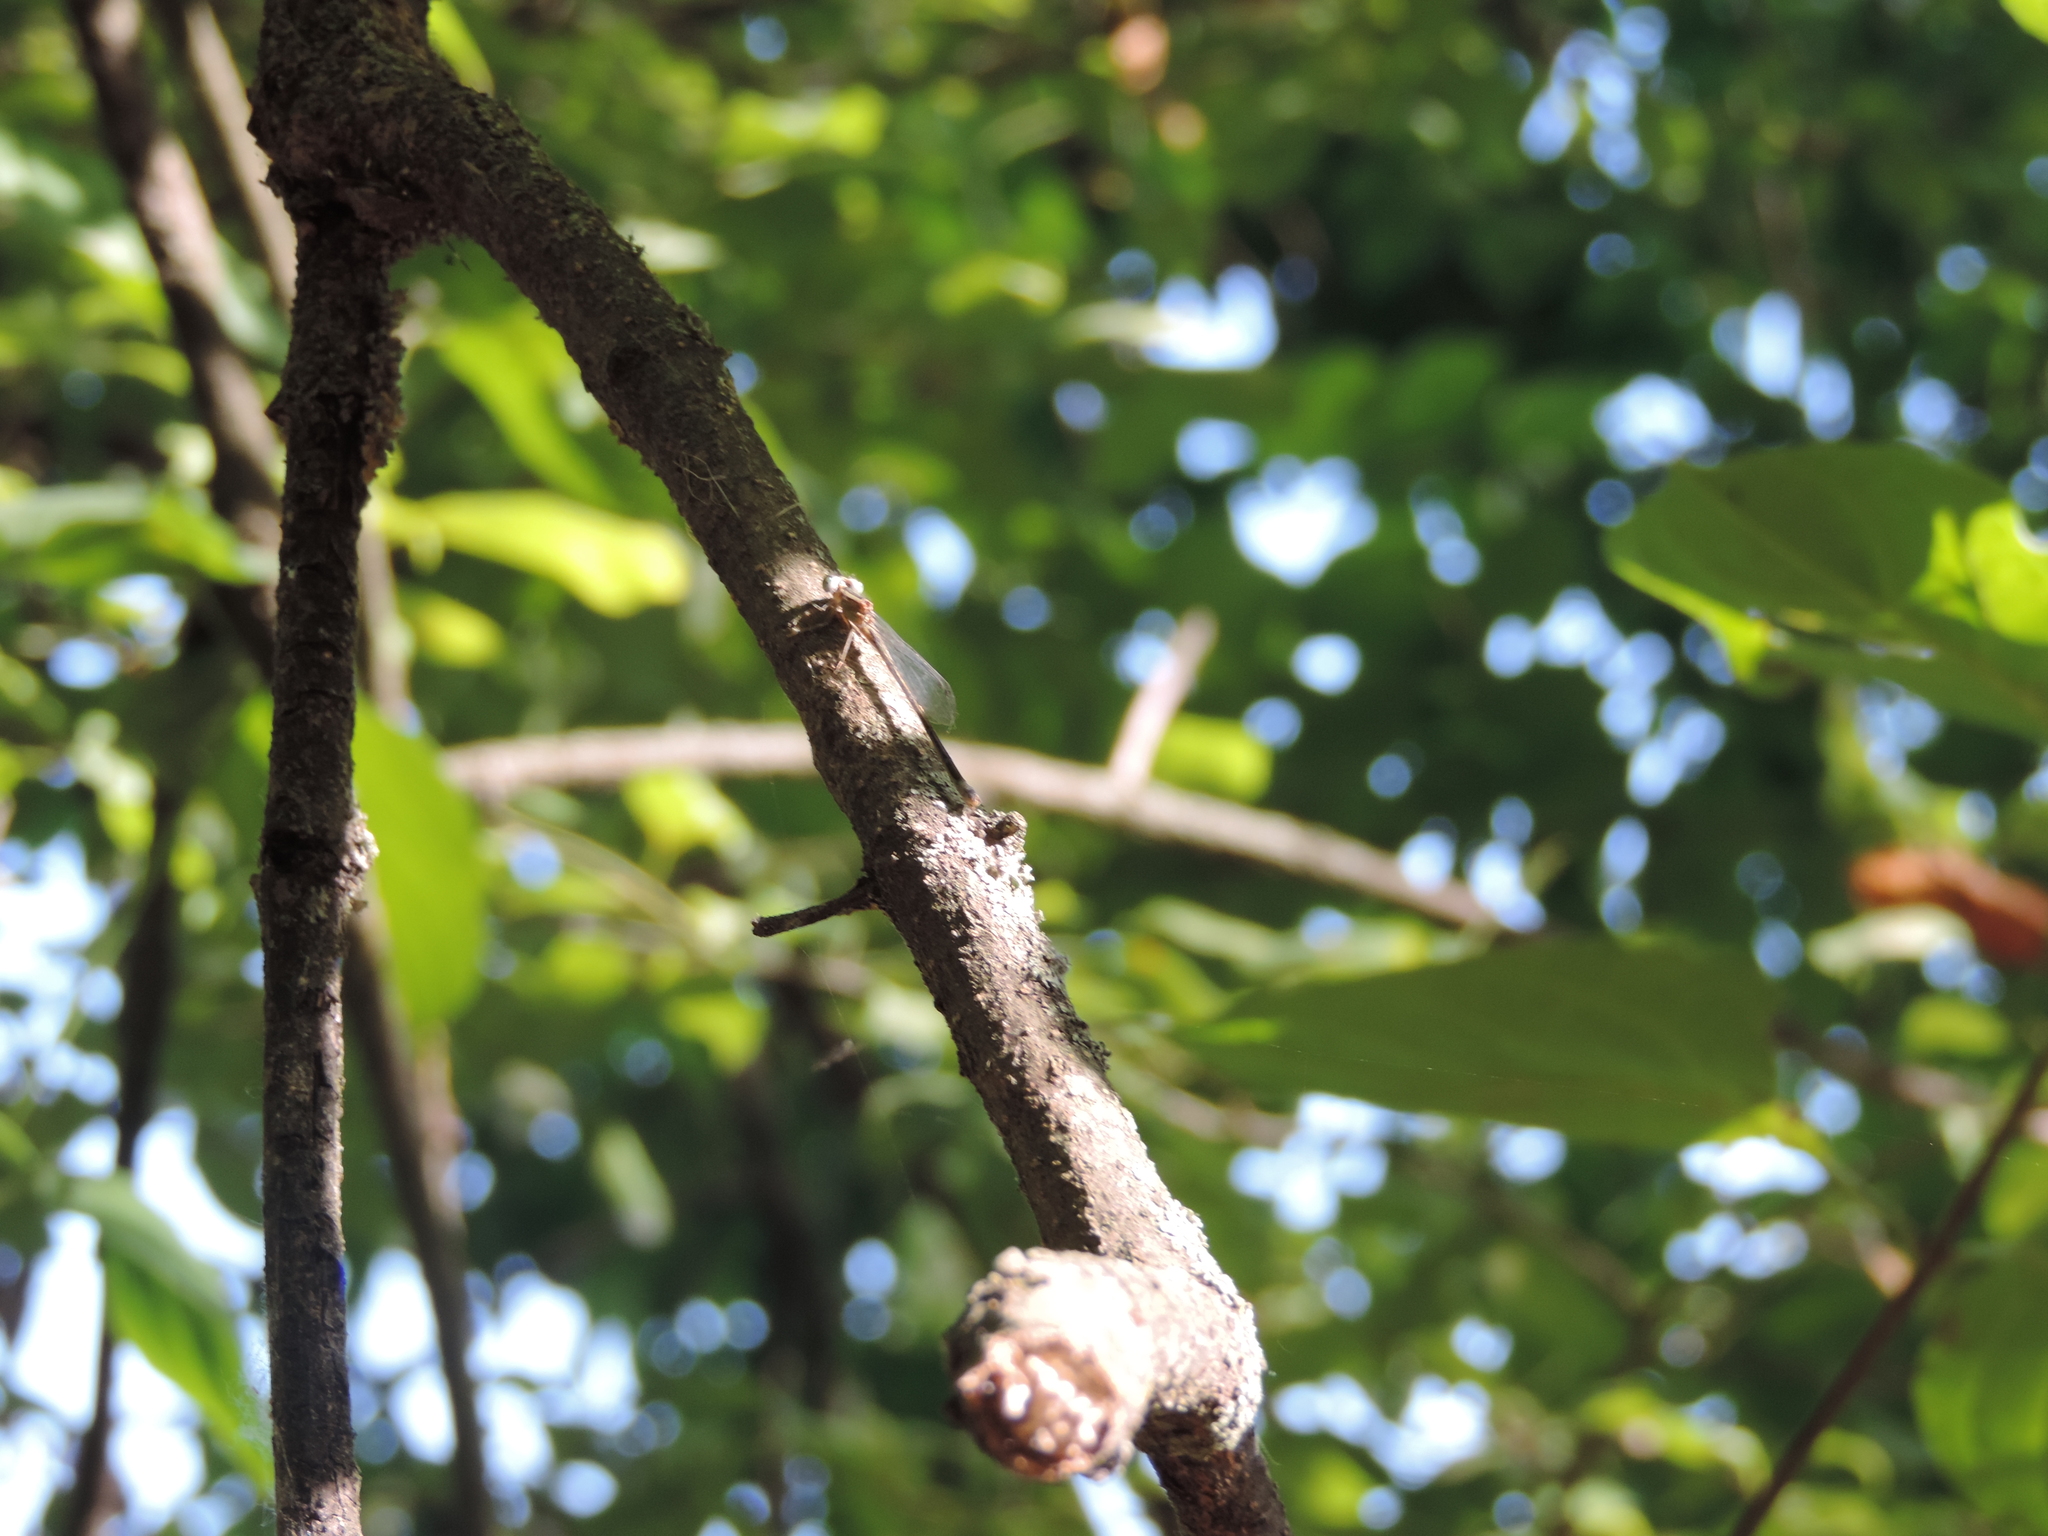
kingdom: Animalia
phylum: Arthropoda
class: Insecta
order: Odonata
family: Coenagrionidae
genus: Ischnura
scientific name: Ischnura elegans
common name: Blue-tailed damselfly
